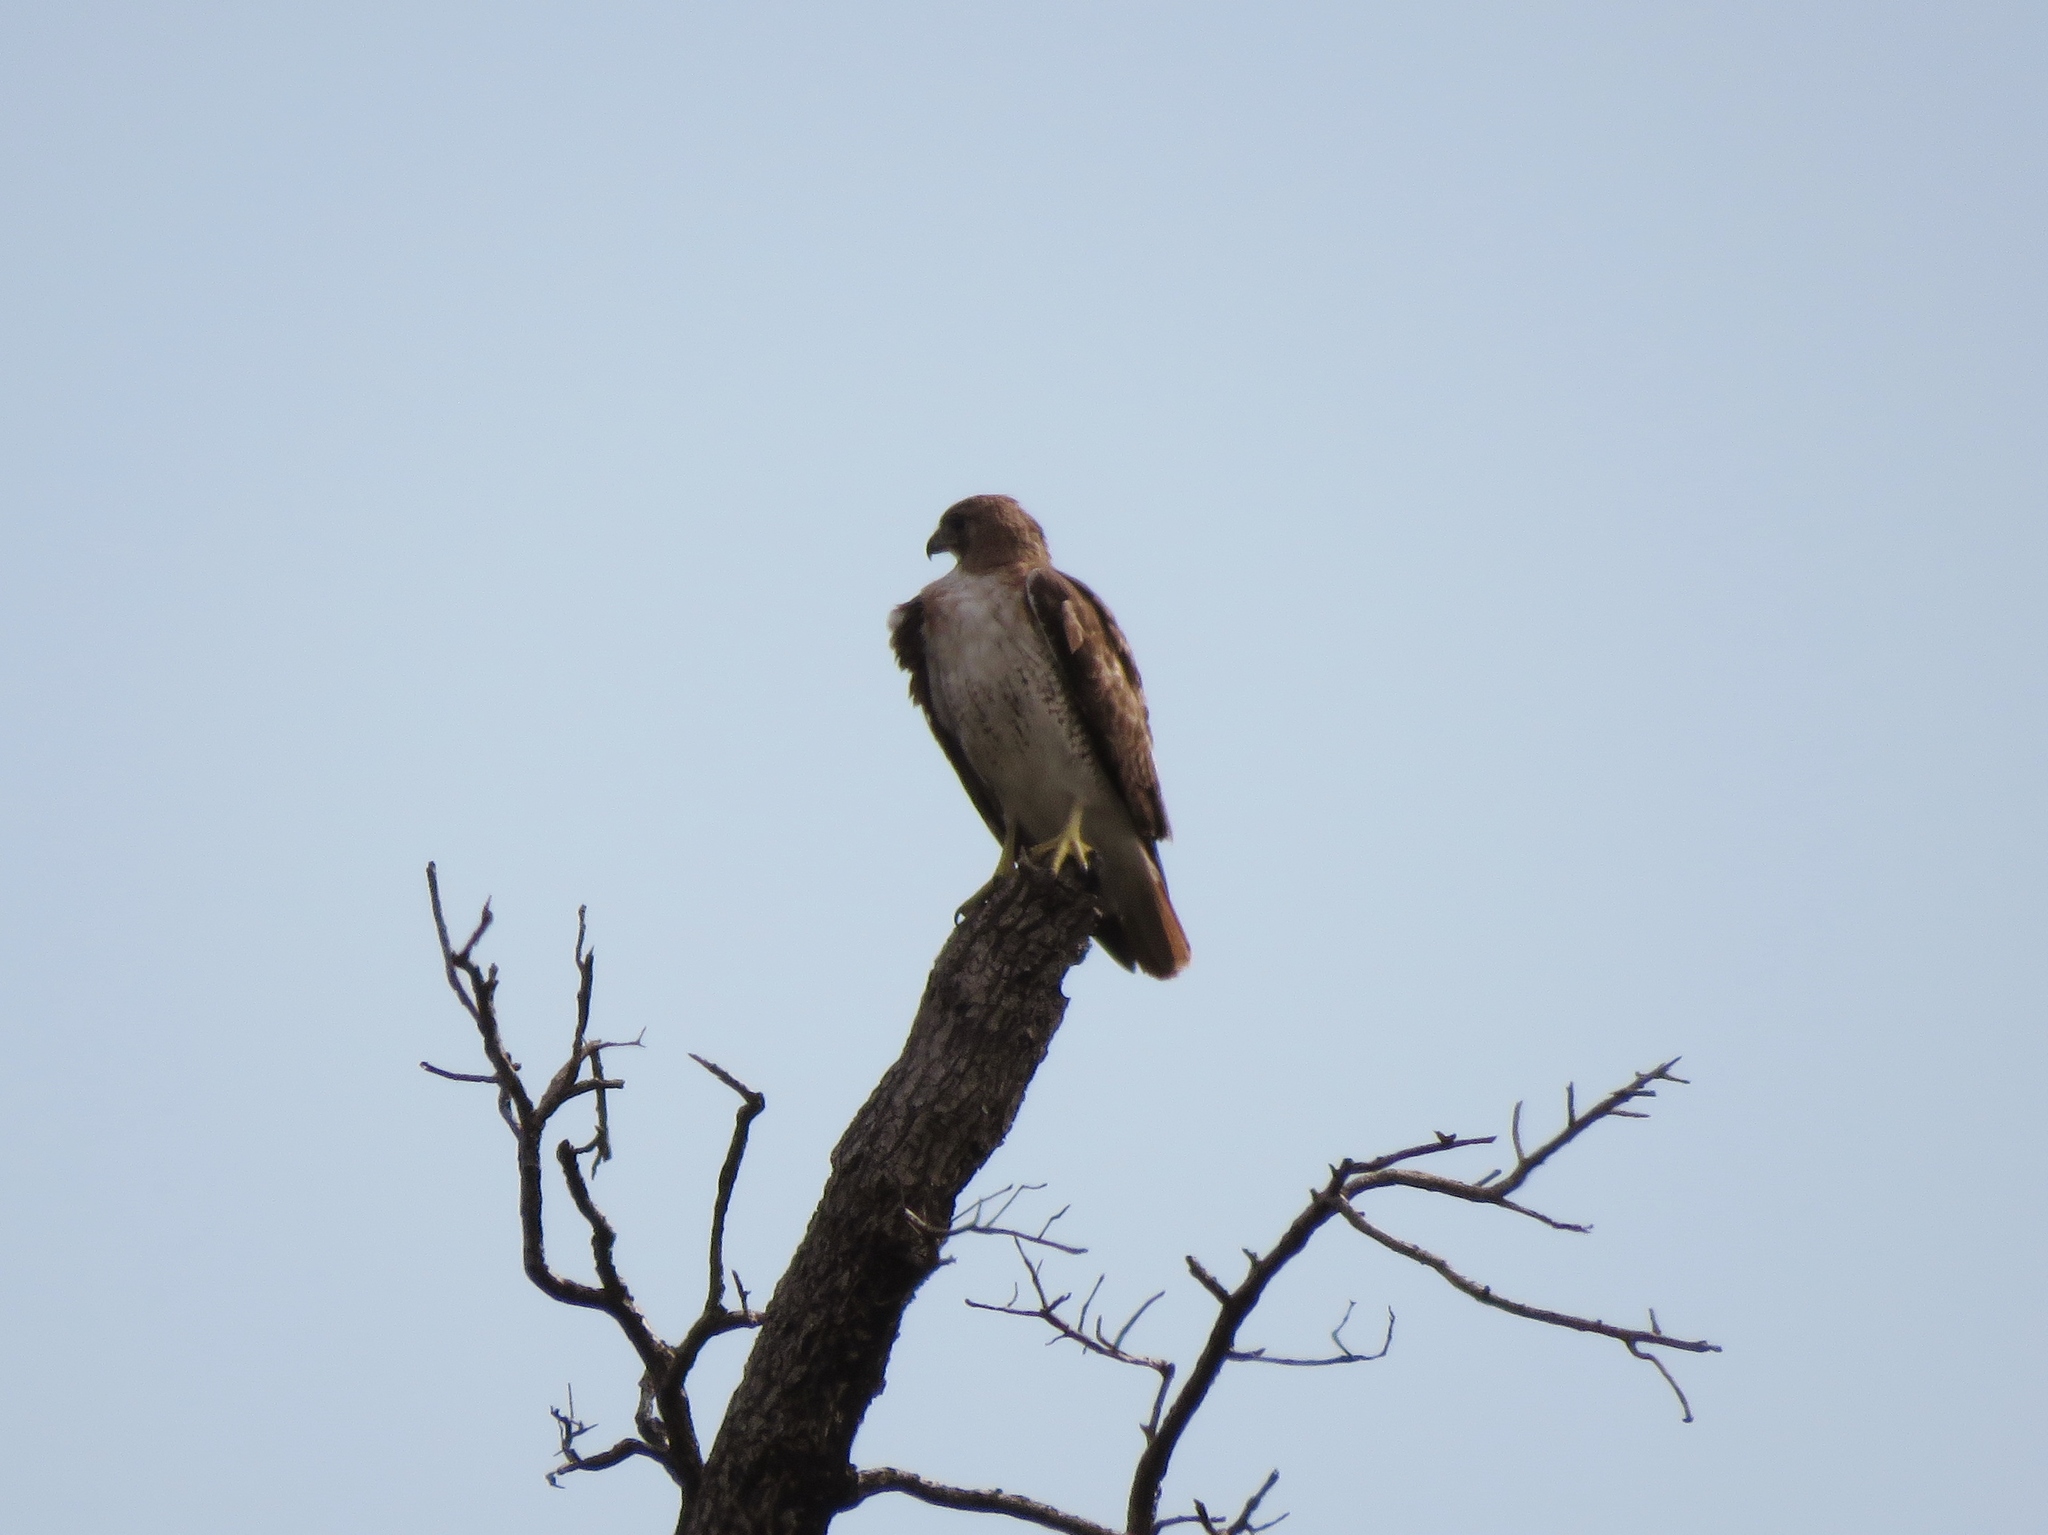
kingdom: Animalia
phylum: Chordata
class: Aves
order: Accipitriformes
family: Accipitridae
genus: Buteo
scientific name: Buteo jamaicensis
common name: Red-tailed hawk
